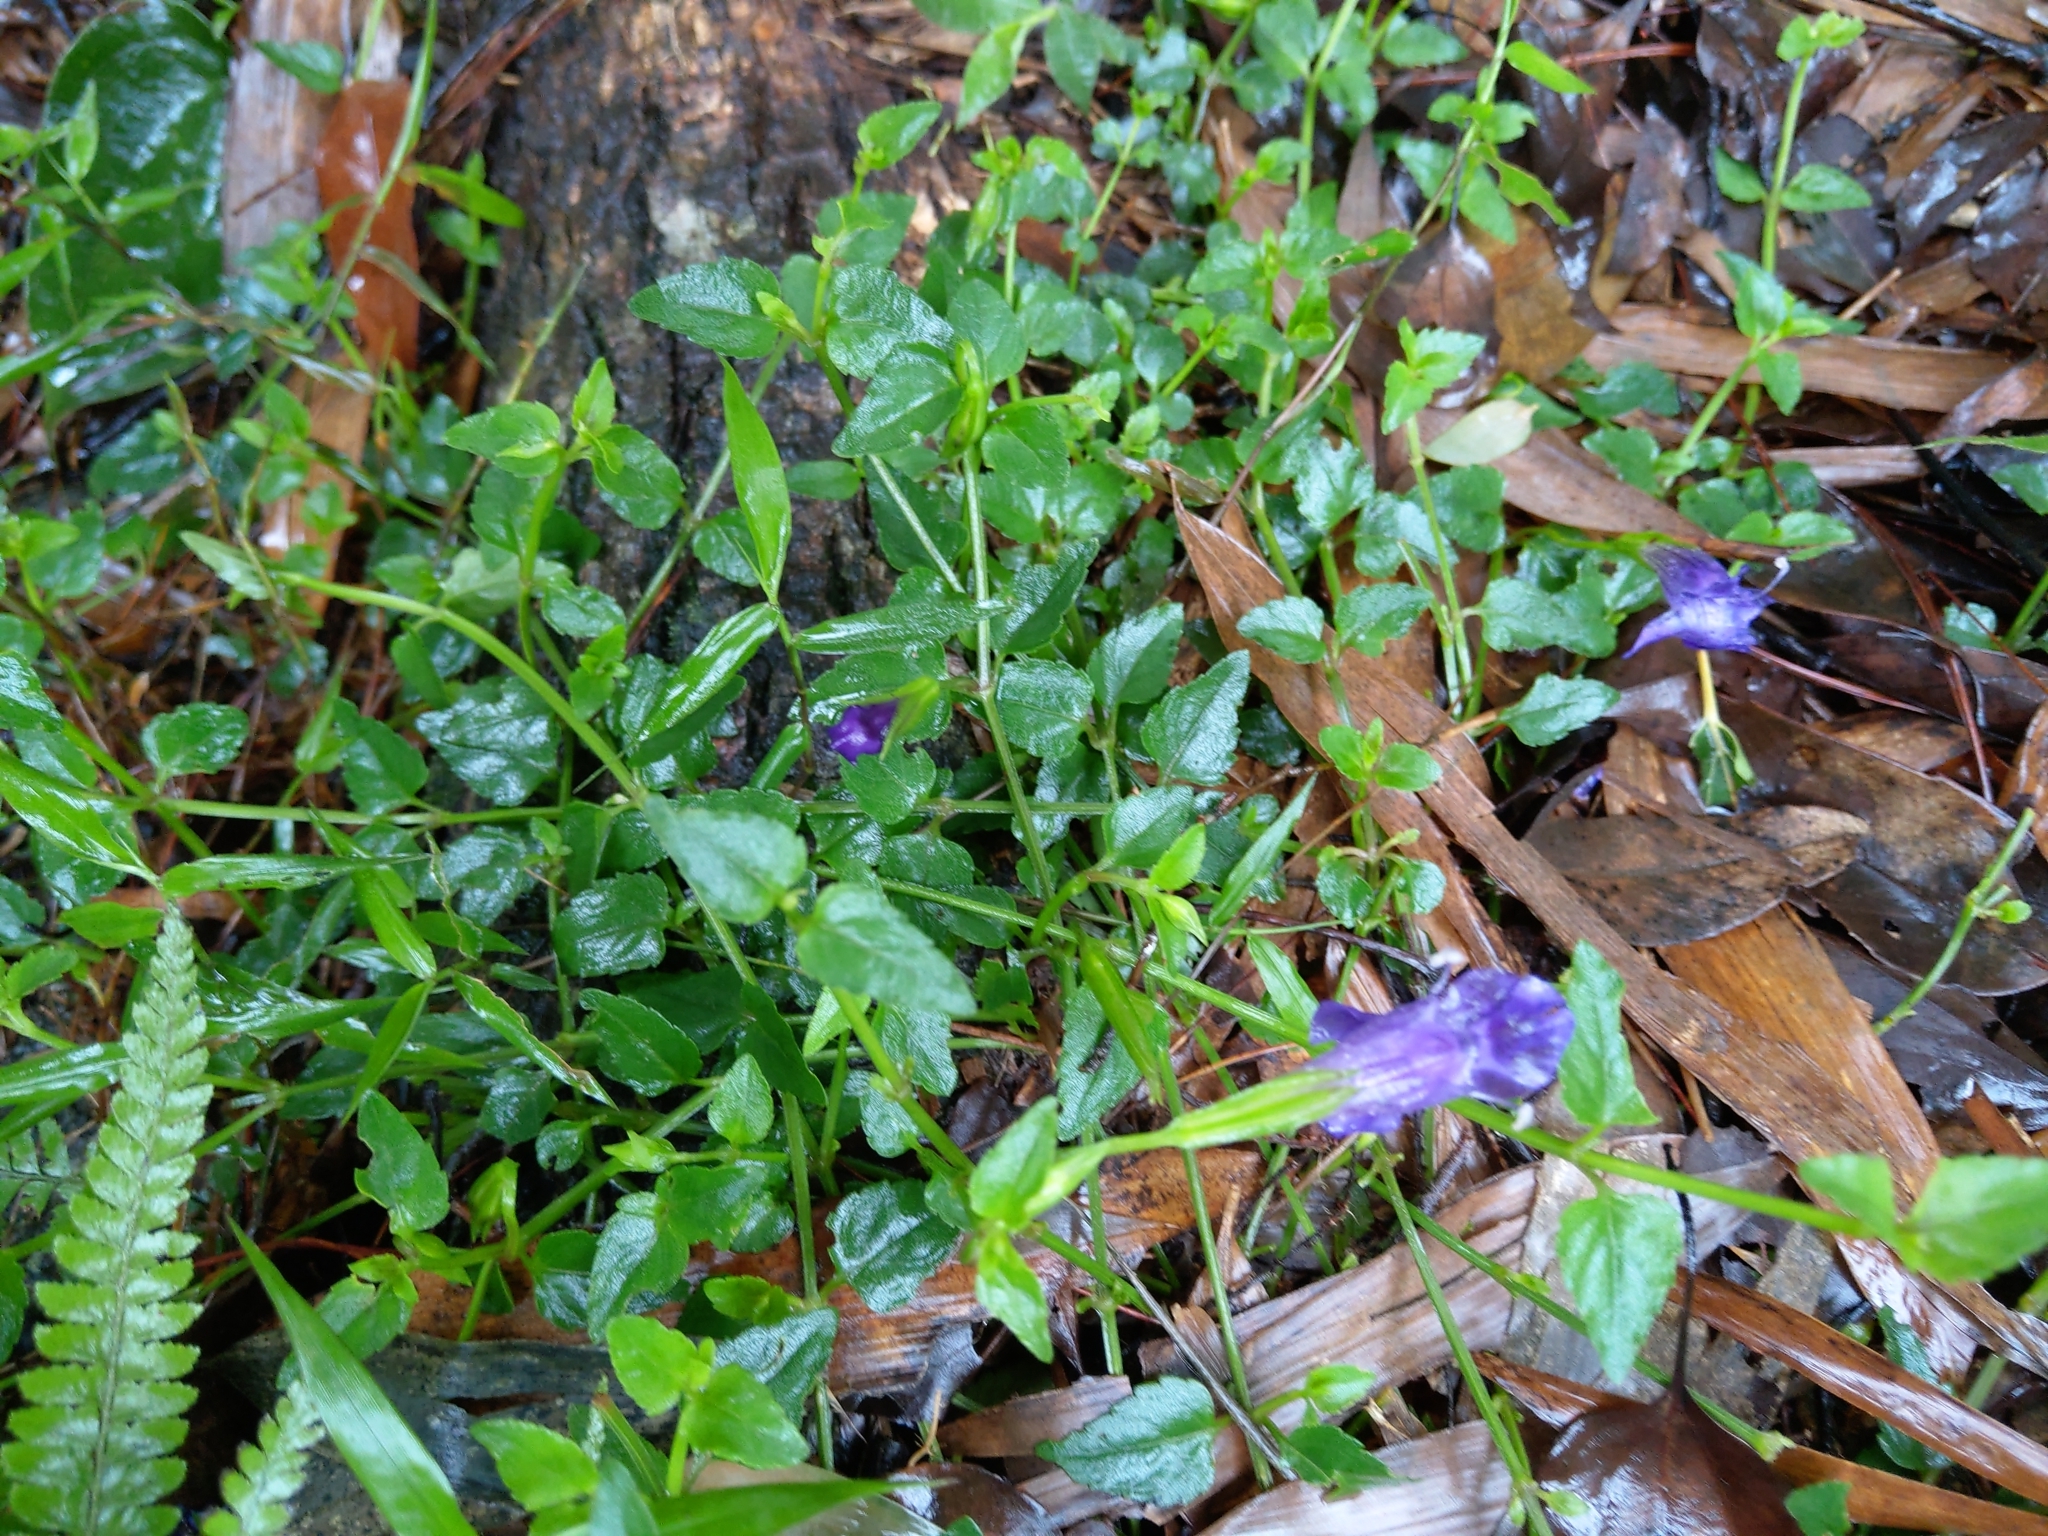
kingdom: Plantae
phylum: Tracheophyta
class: Magnoliopsida
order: Lamiales
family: Linderniaceae
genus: Torenia
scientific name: Torenia concolor
